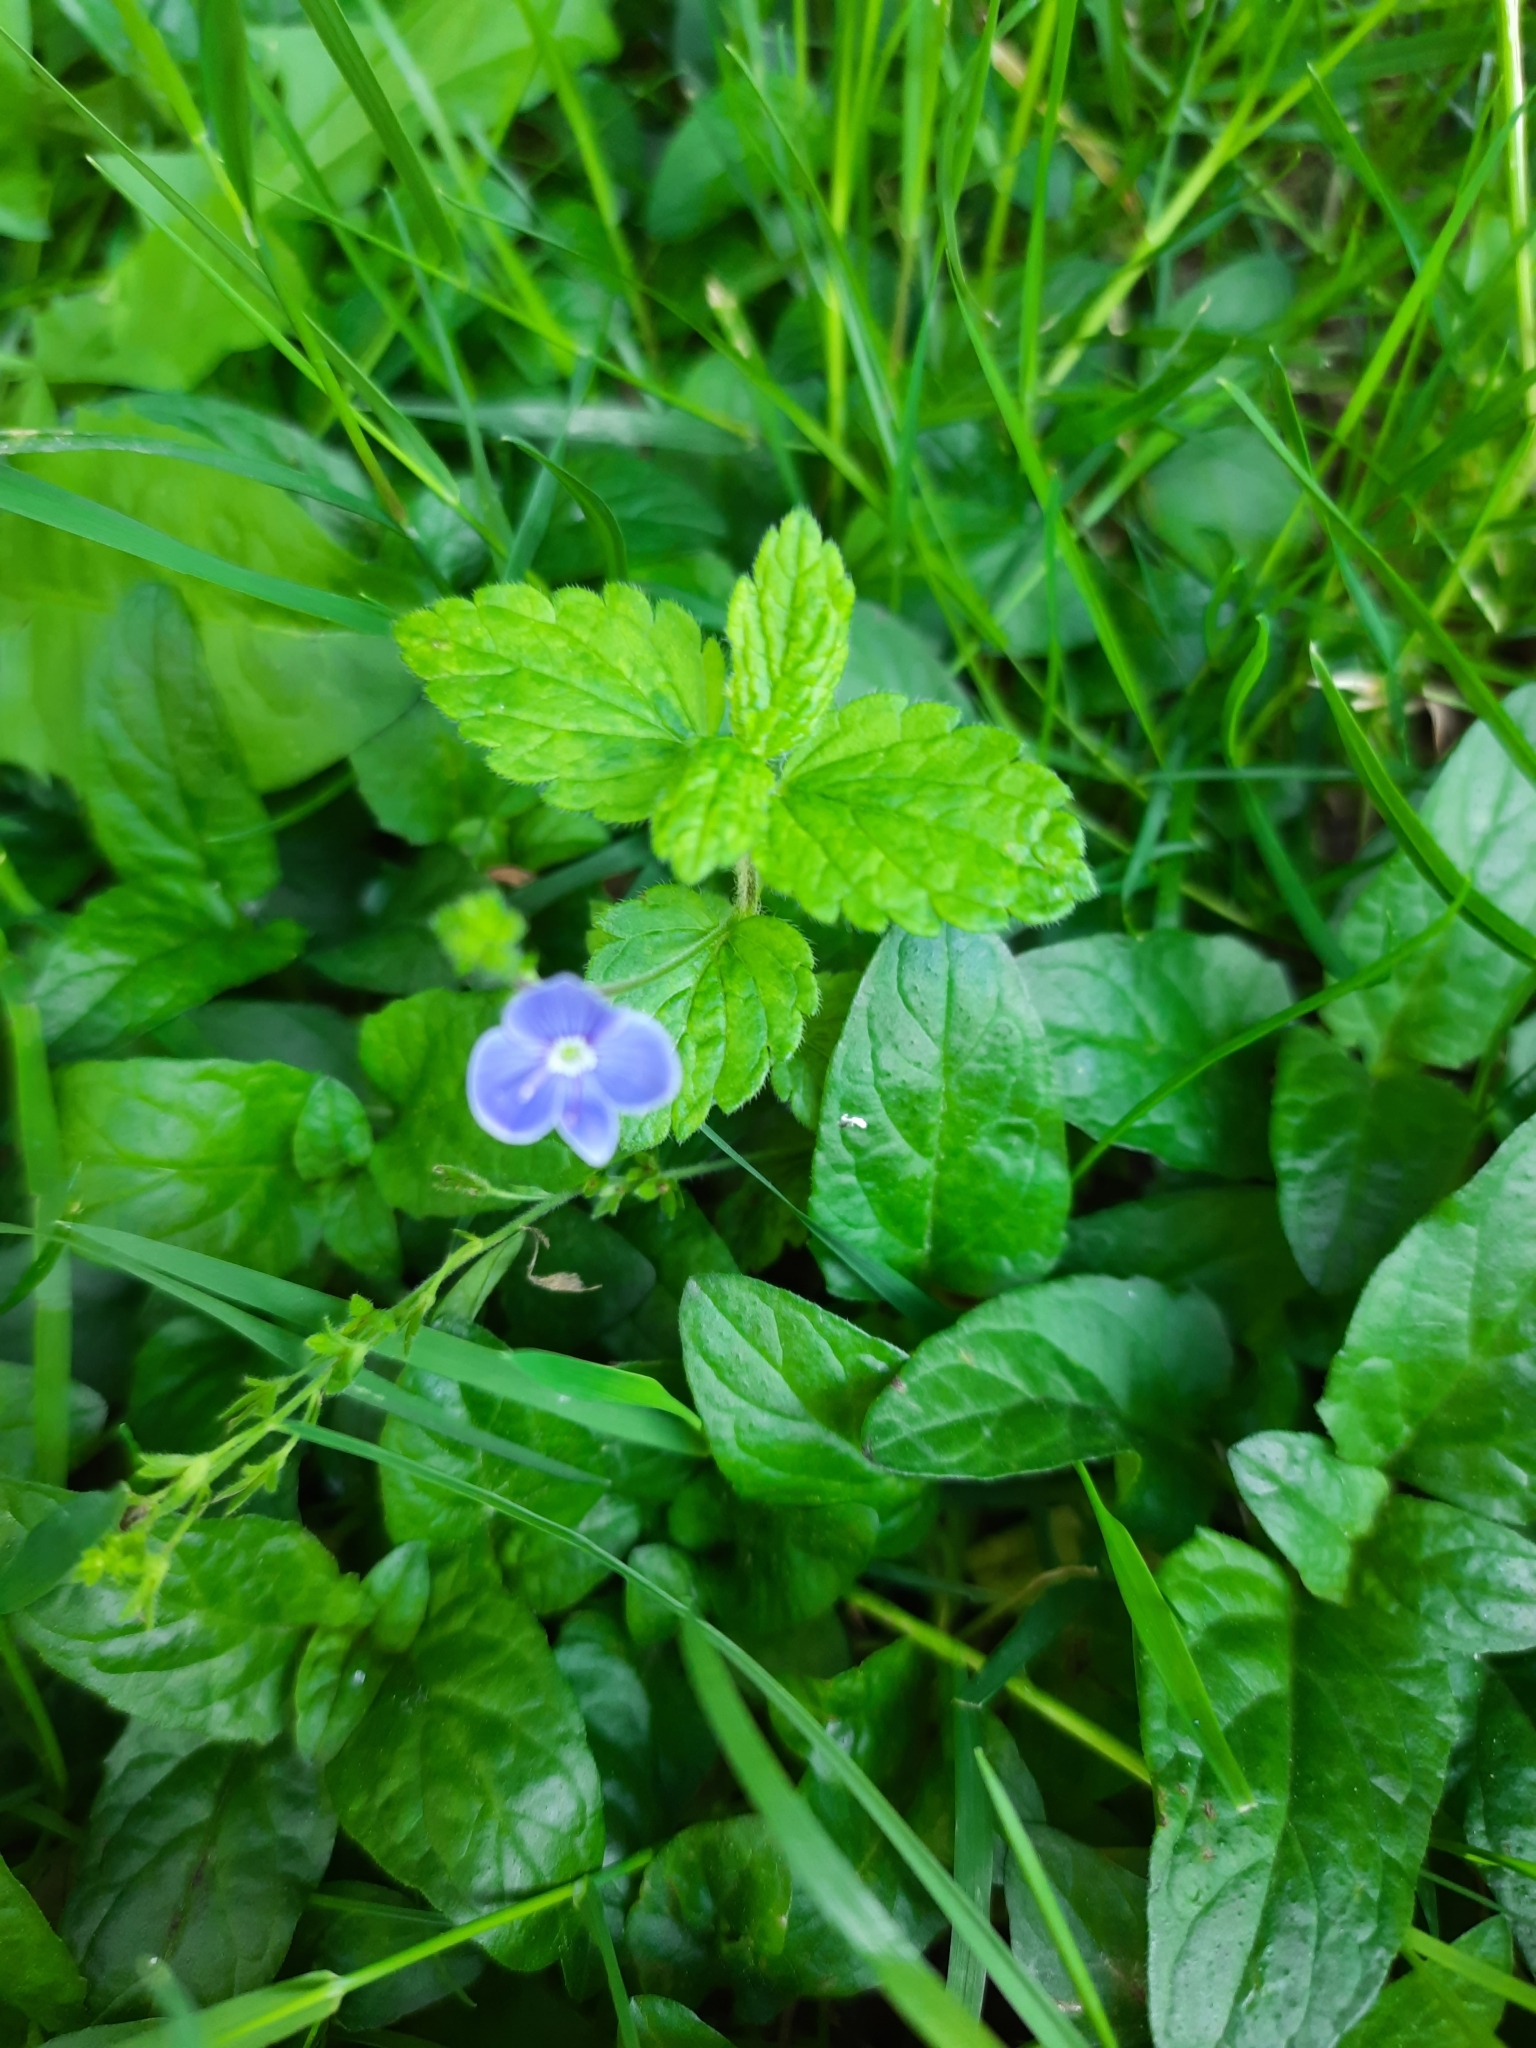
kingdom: Plantae
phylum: Tracheophyta
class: Magnoliopsida
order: Lamiales
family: Plantaginaceae
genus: Veronica
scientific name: Veronica chamaedrys
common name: Germander speedwell
